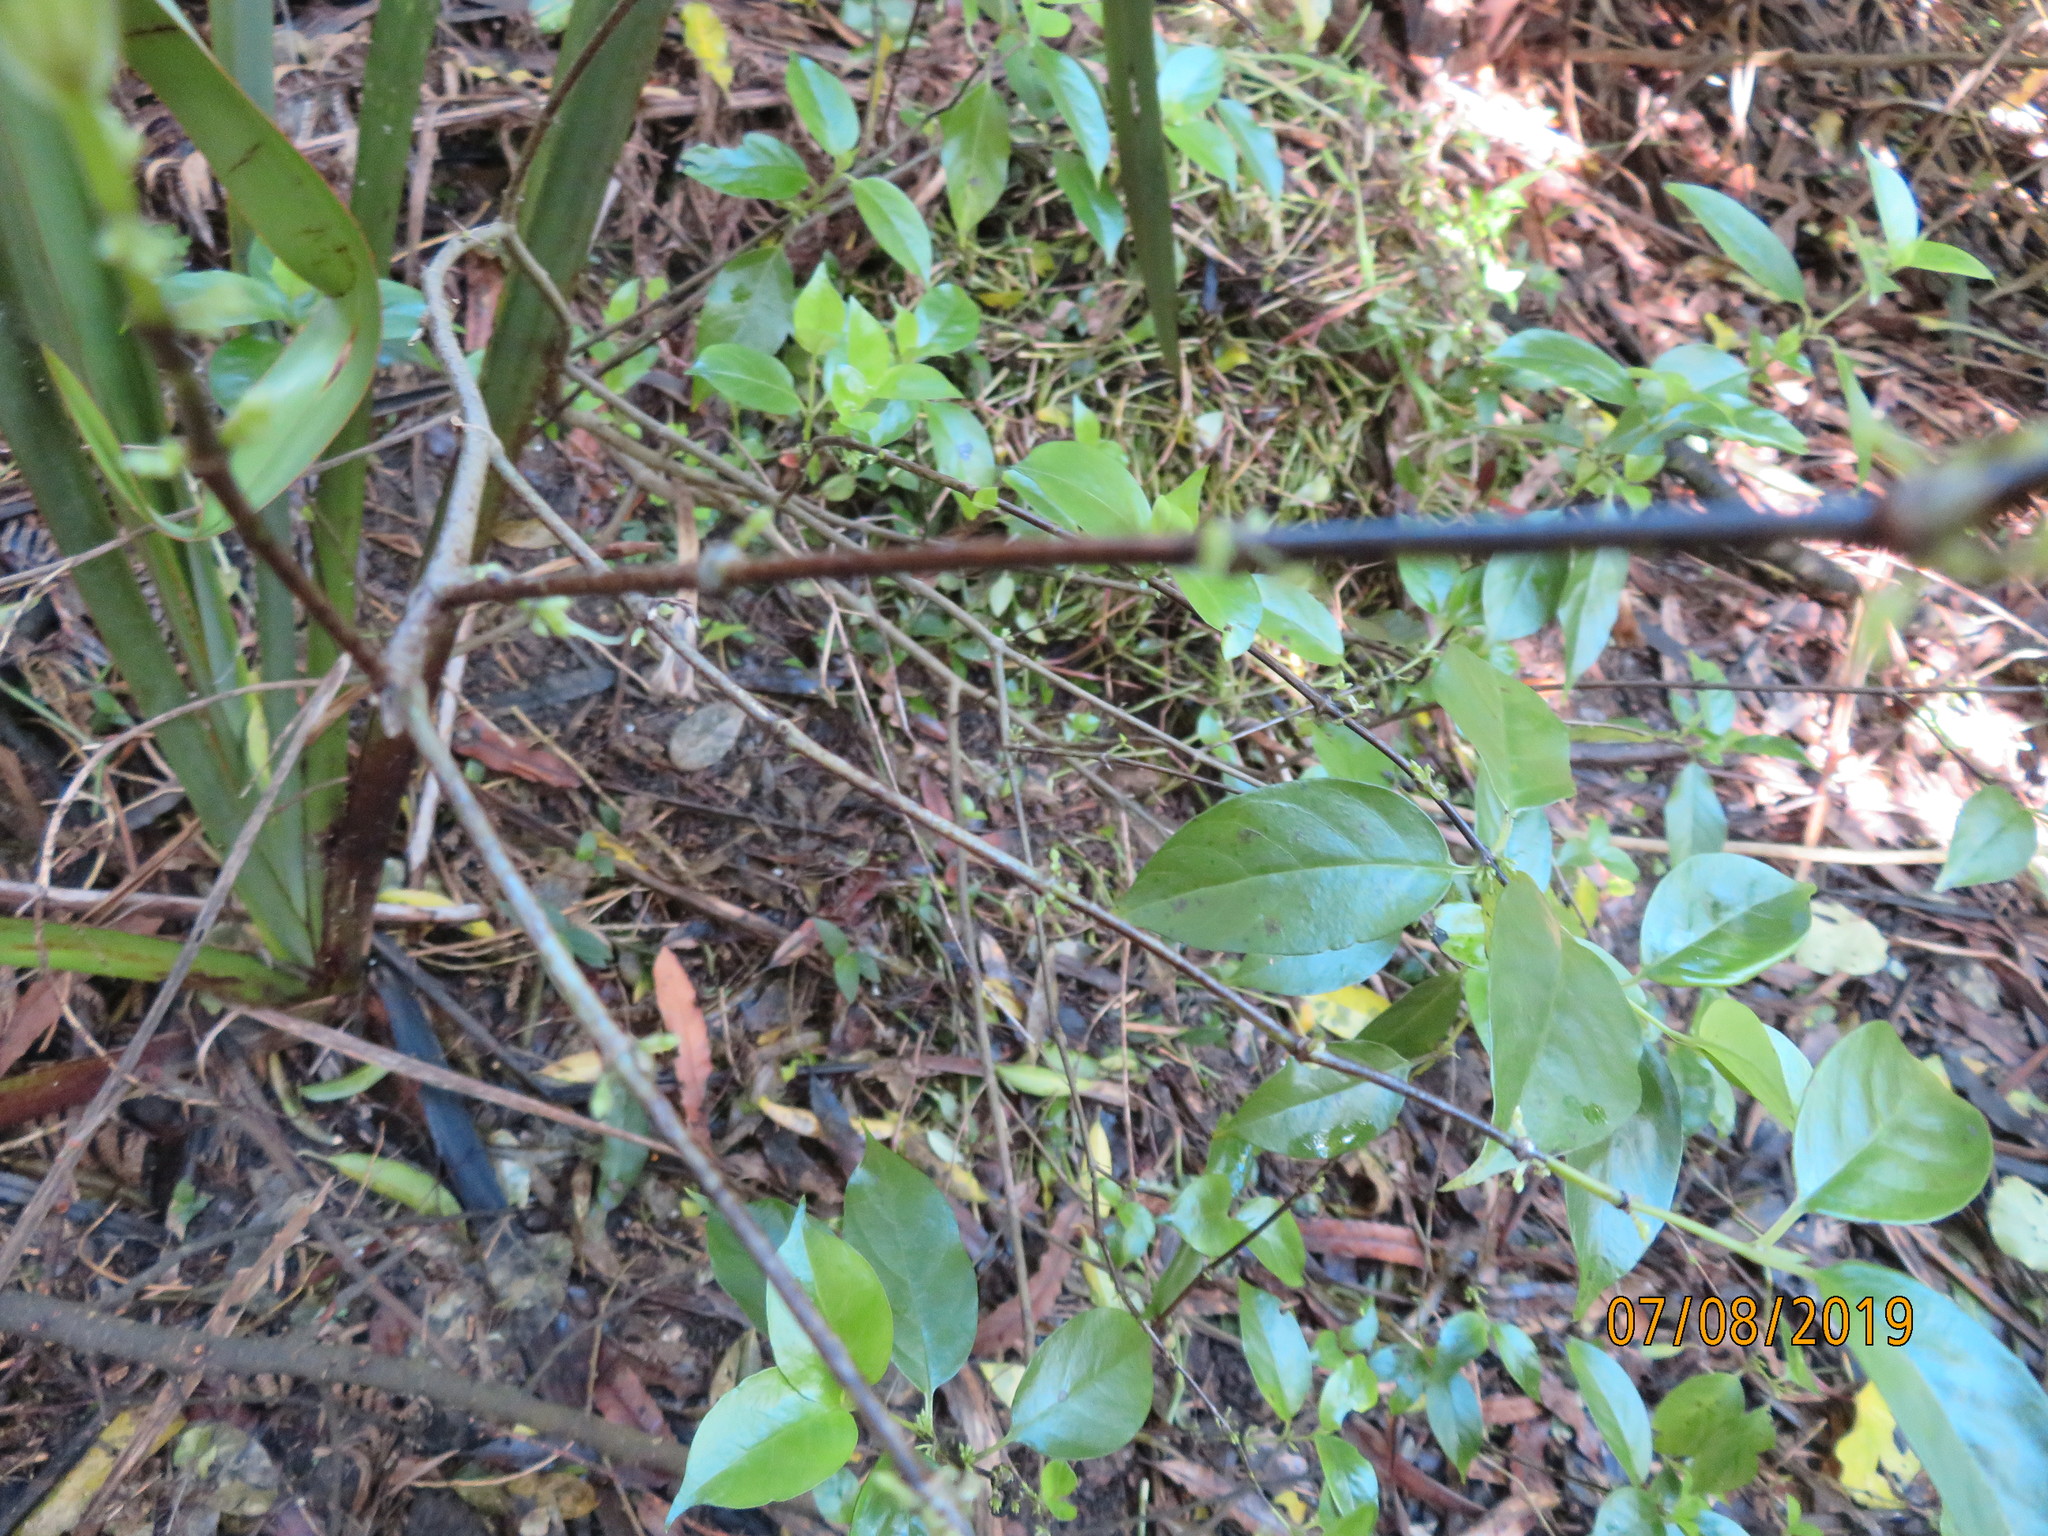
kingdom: Plantae
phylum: Tracheophyta
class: Magnoliopsida
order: Gentianales
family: Loganiaceae
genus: Geniostoma
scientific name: Geniostoma ligustrifolium
